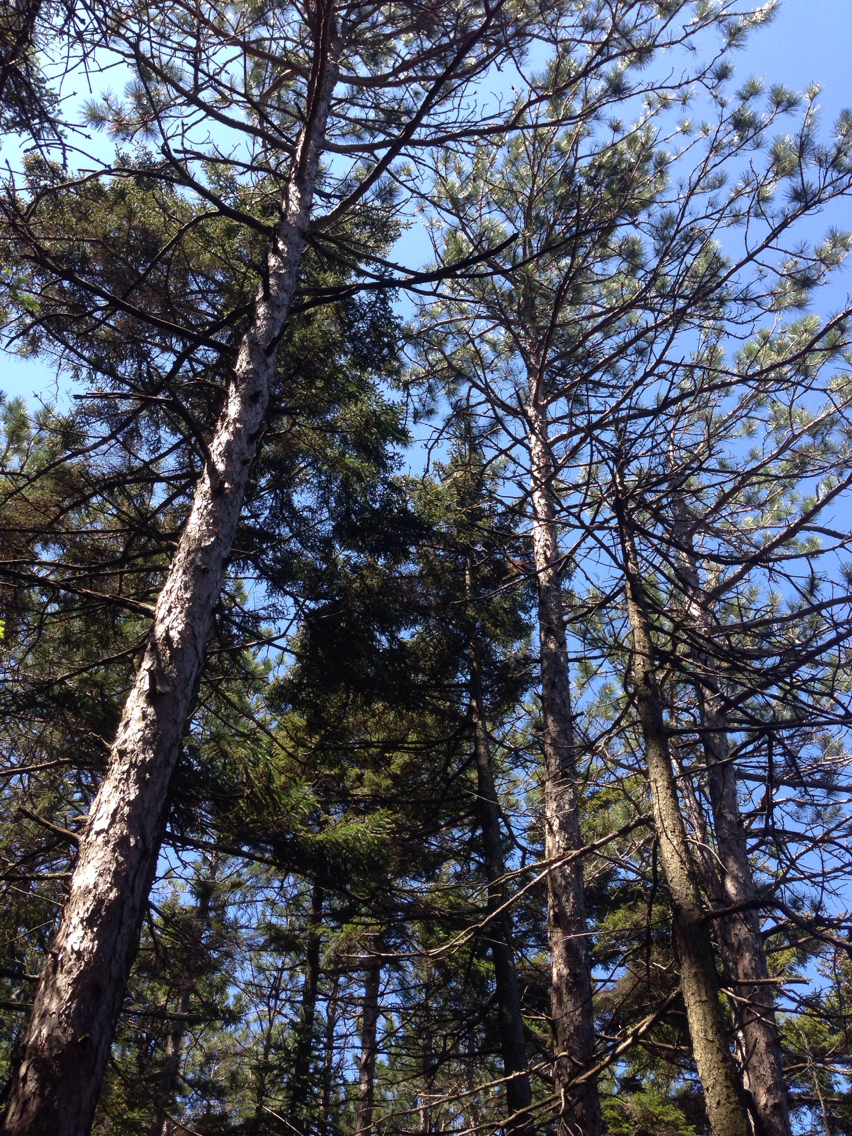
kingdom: Plantae
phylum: Tracheophyta
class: Pinopsida
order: Pinales
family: Pinaceae
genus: Picea
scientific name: Picea rubens
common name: Red spruce
